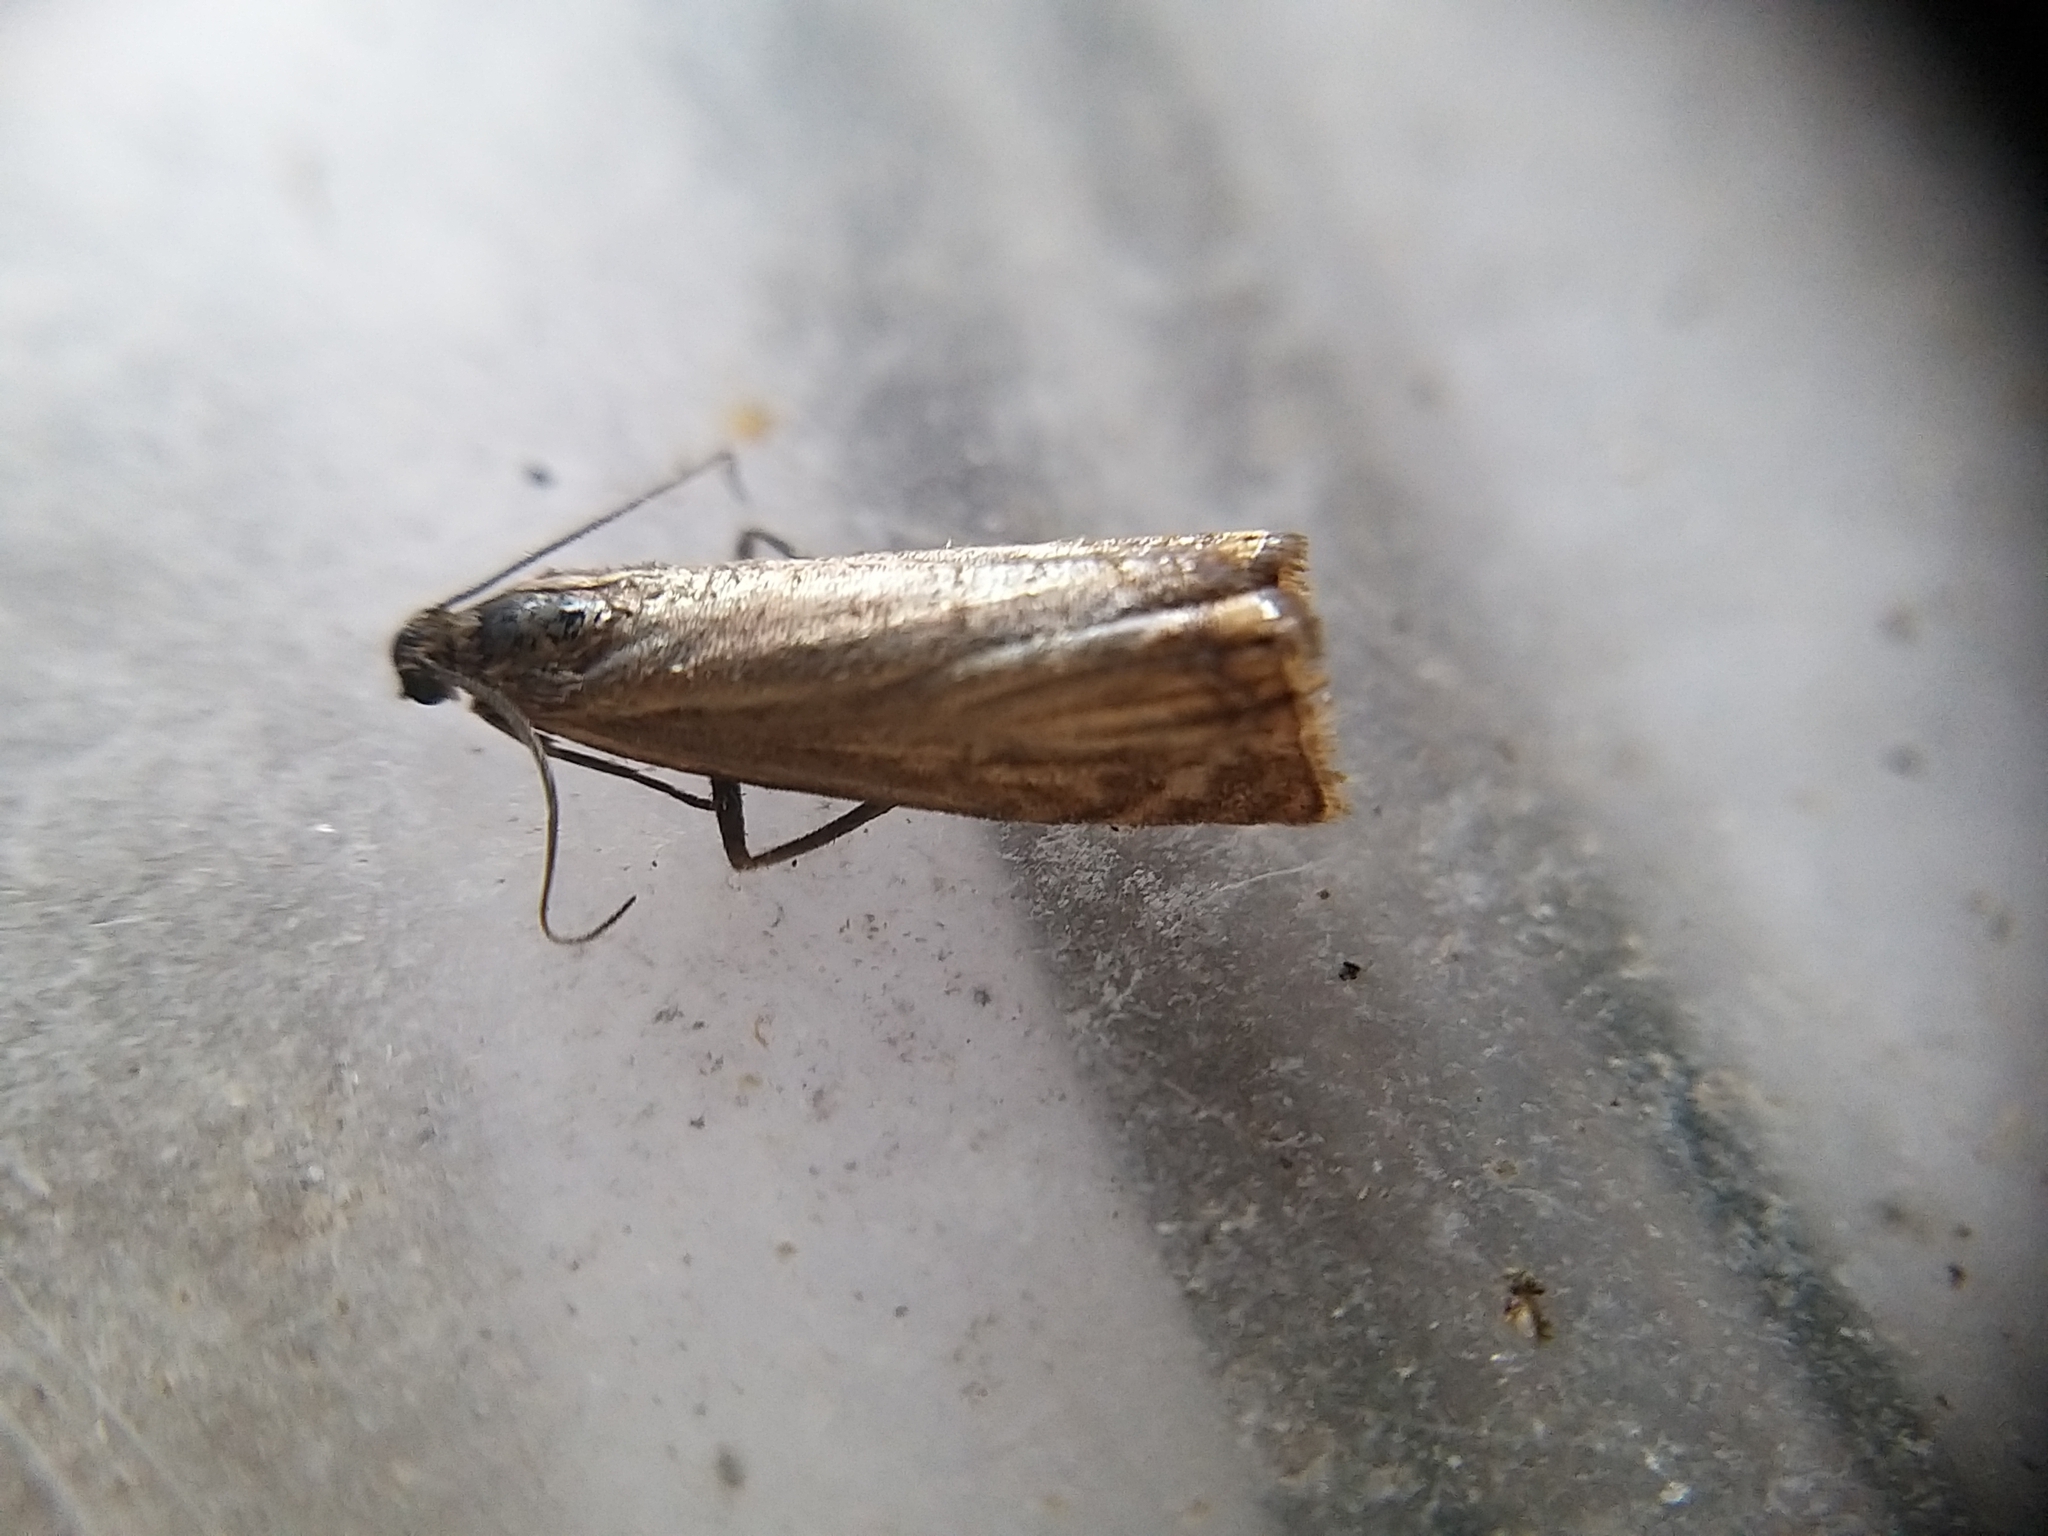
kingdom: Animalia
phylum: Arthropoda
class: Insecta
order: Lepidoptera
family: Crambidae
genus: Chrysoteuchia
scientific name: Chrysoteuchia culmella
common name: Garden grass-veneer
